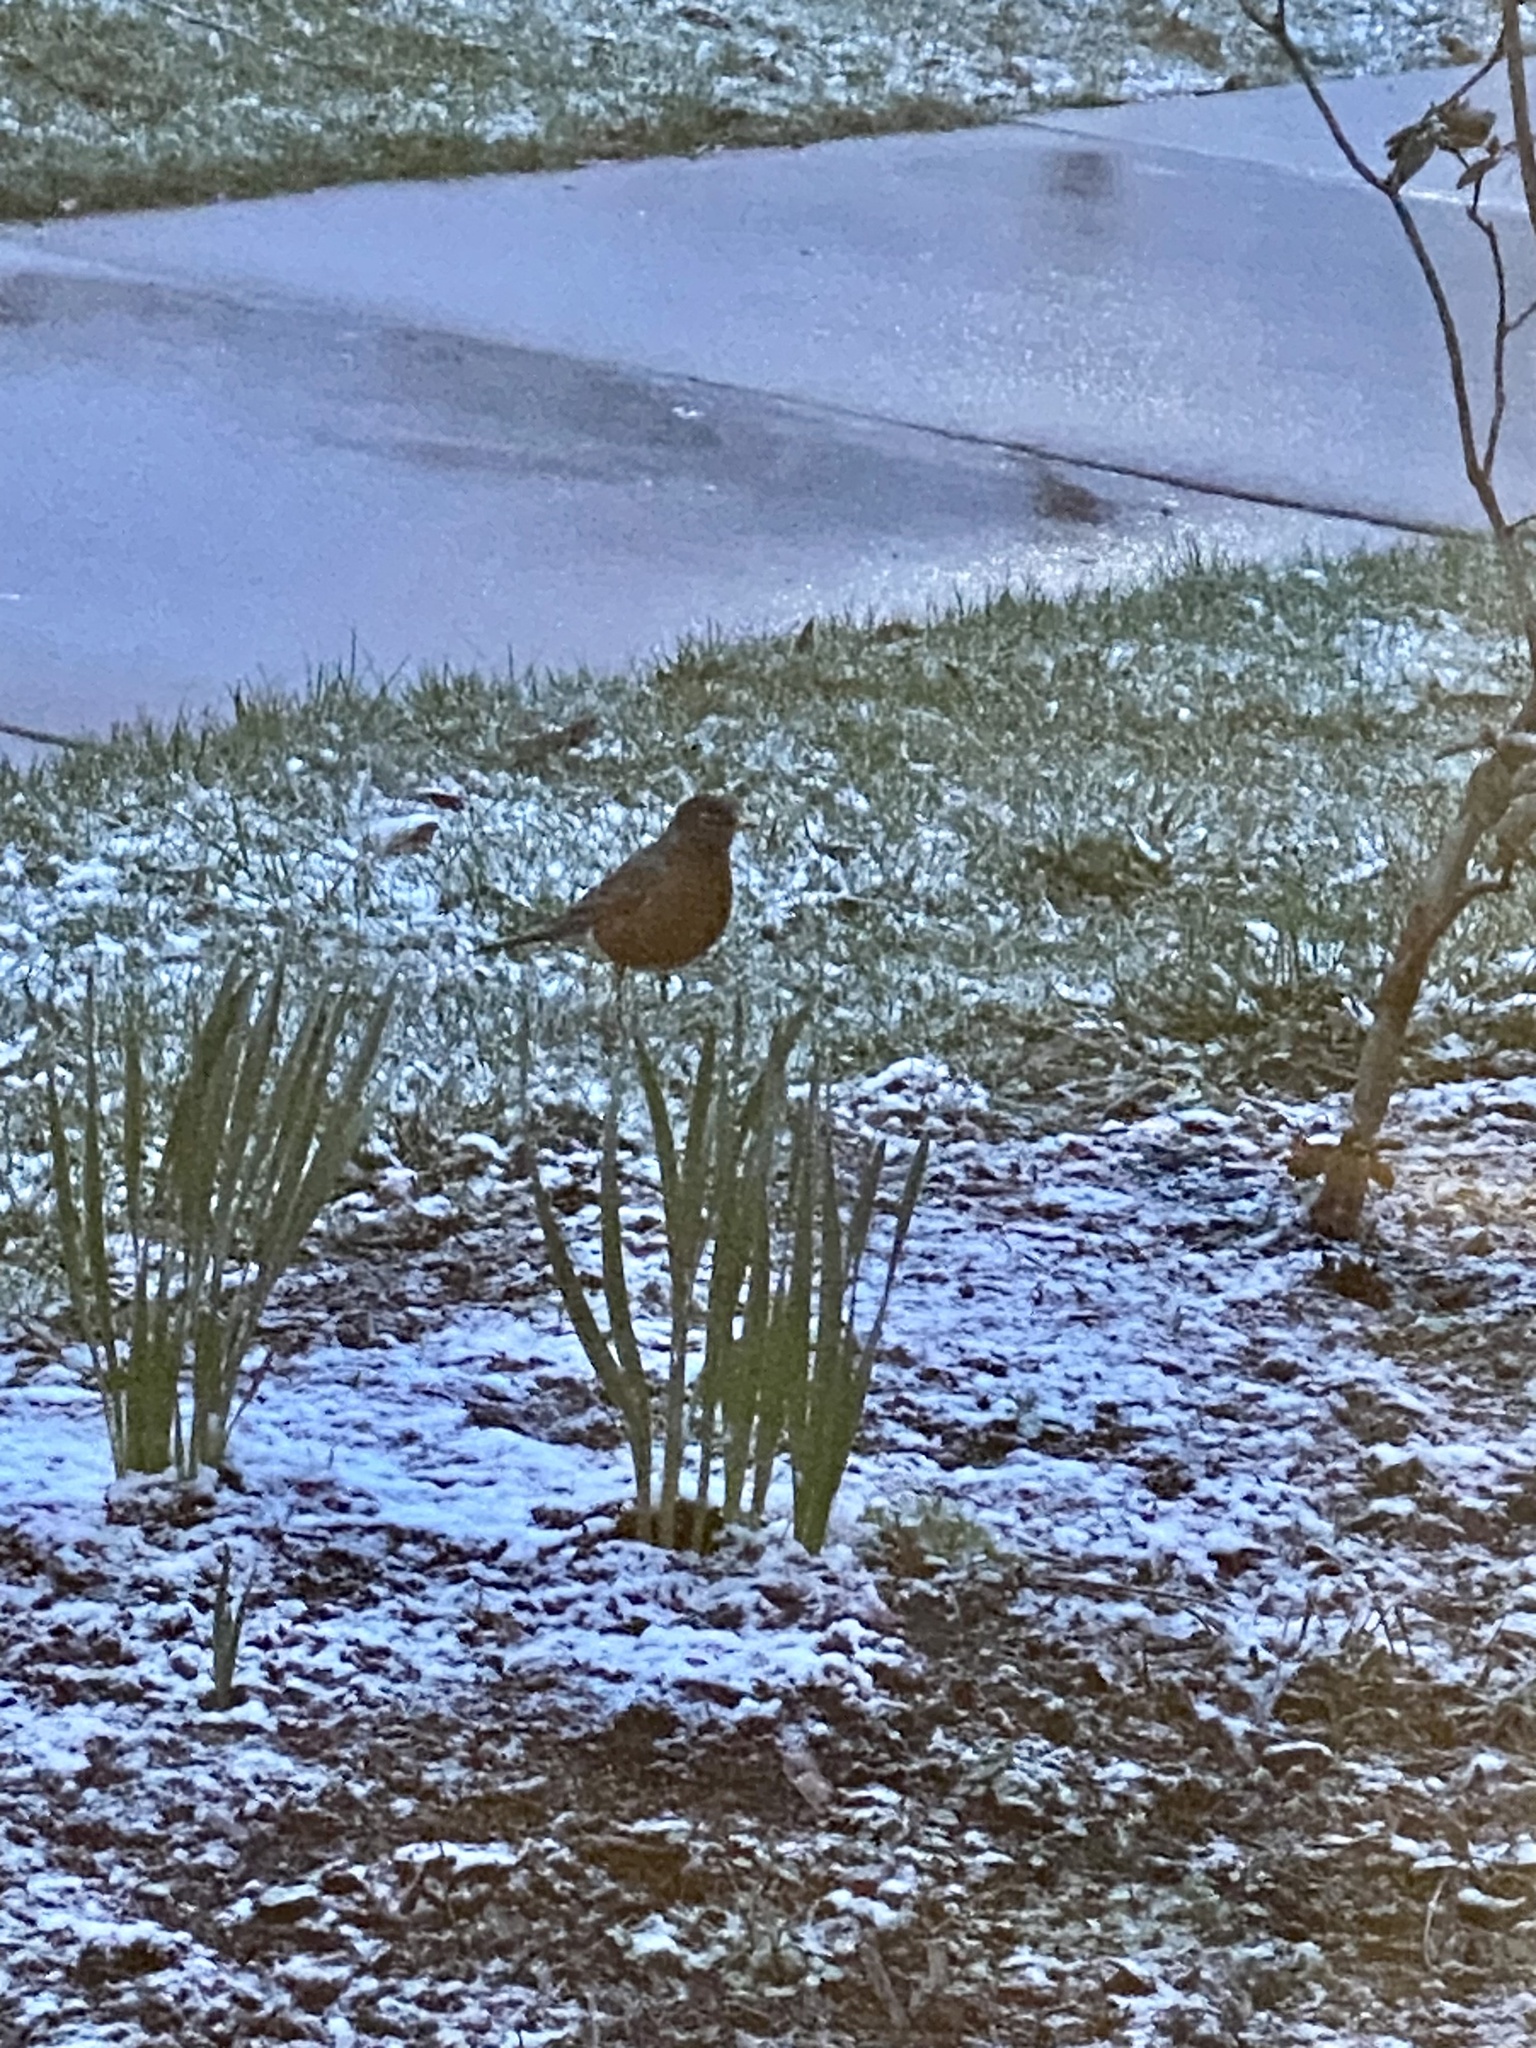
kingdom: Animalia
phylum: Chordata
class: Aves
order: Passeriformes
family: Turdidae
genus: Turdus
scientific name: Turdus migratorius
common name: American robin
